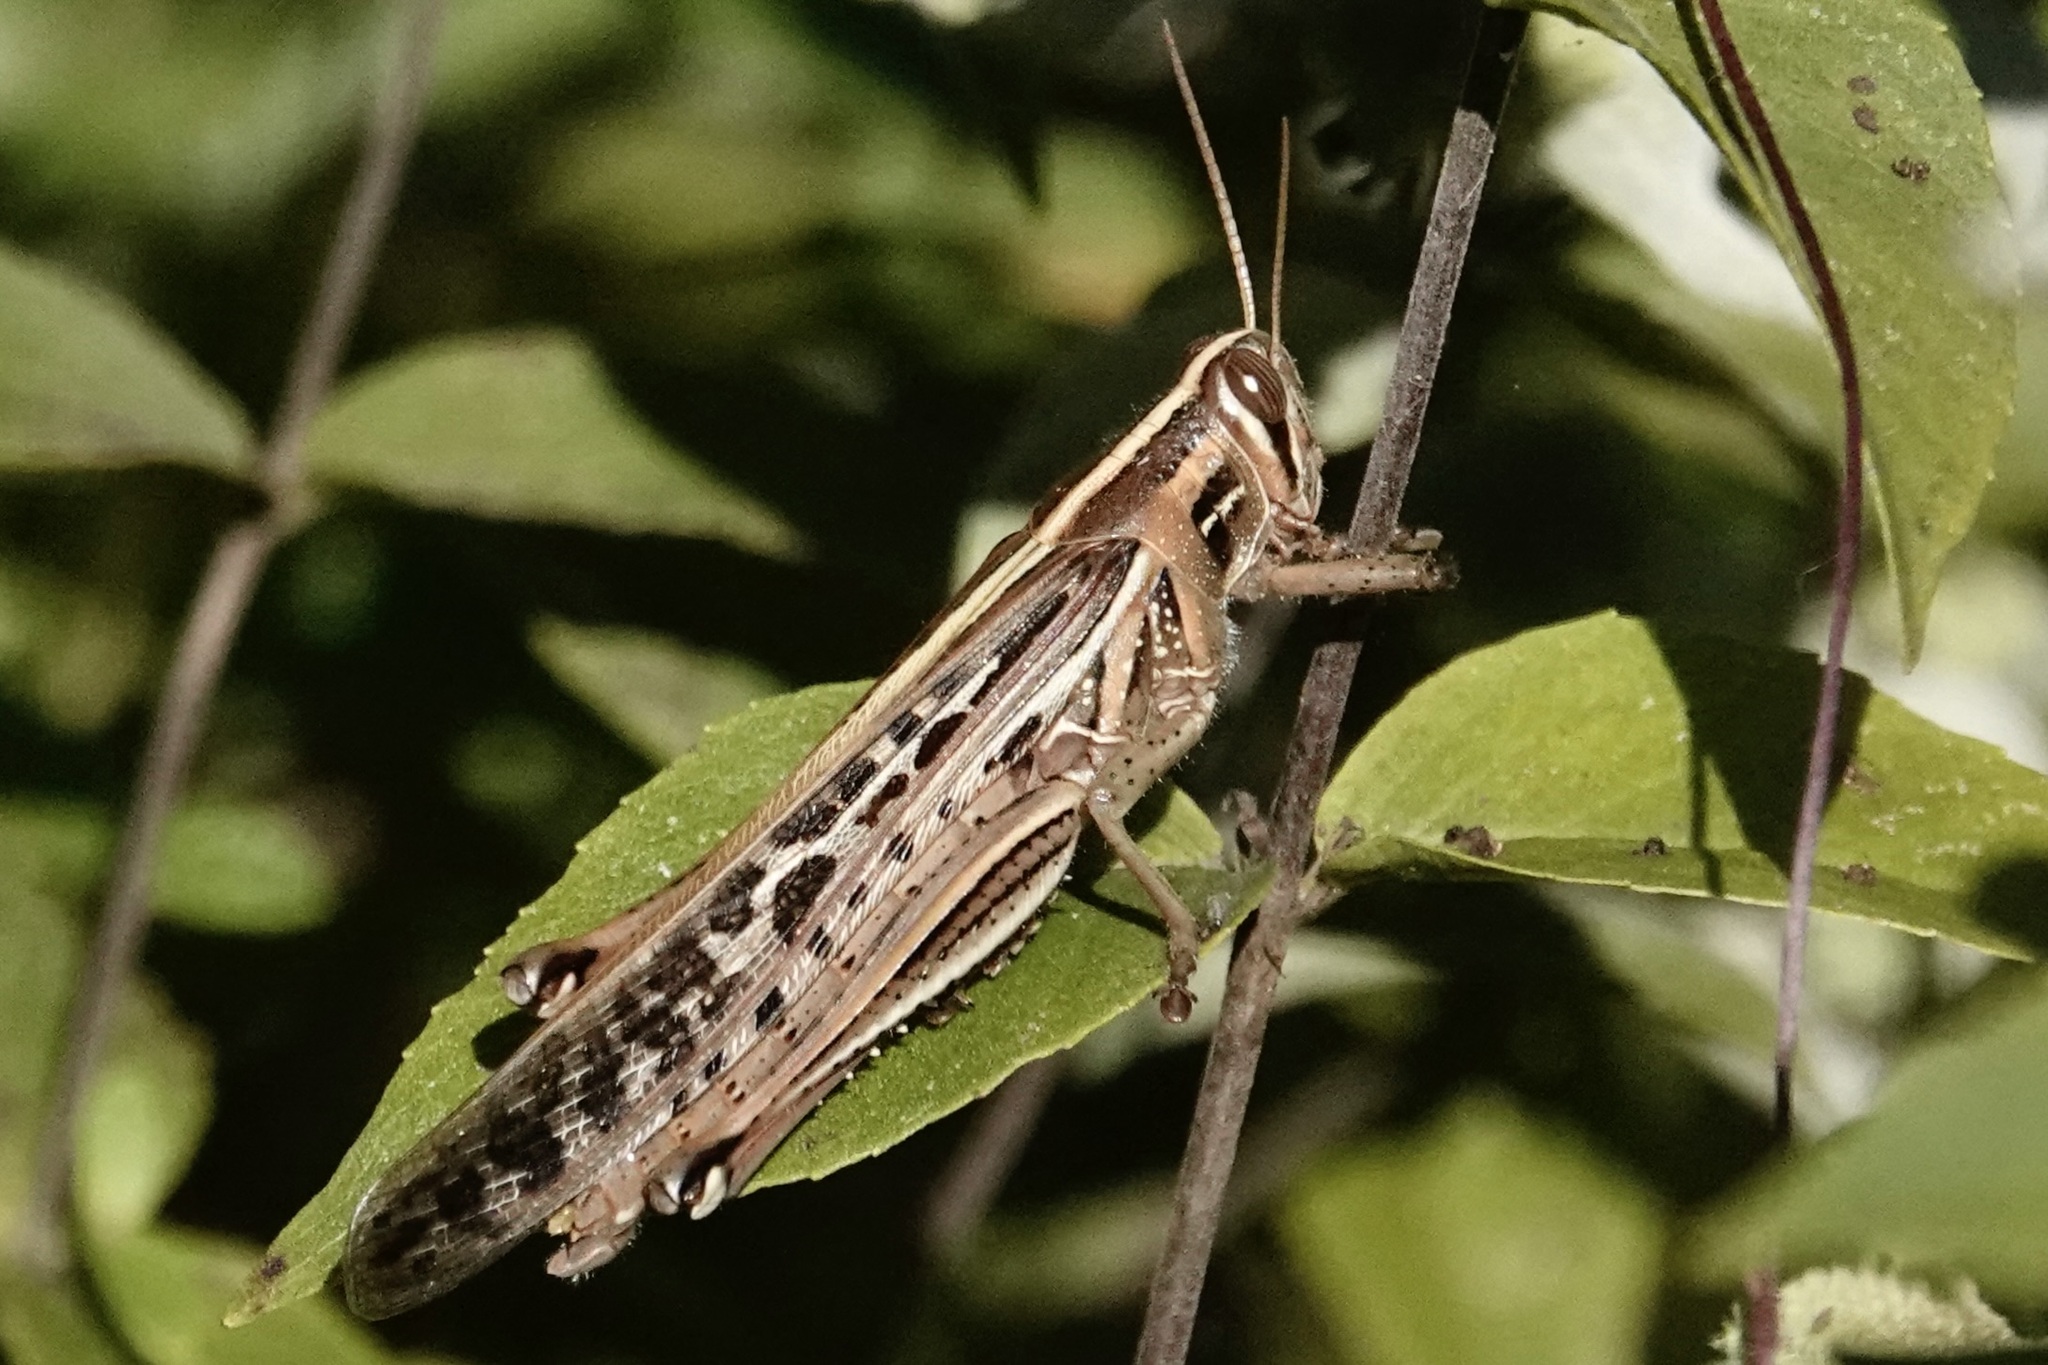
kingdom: Animalia
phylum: Arthropoda
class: Insecta
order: Orthoptera
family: Acrididae
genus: Schistocerca
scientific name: Schistocerca americana
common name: American bird locust
